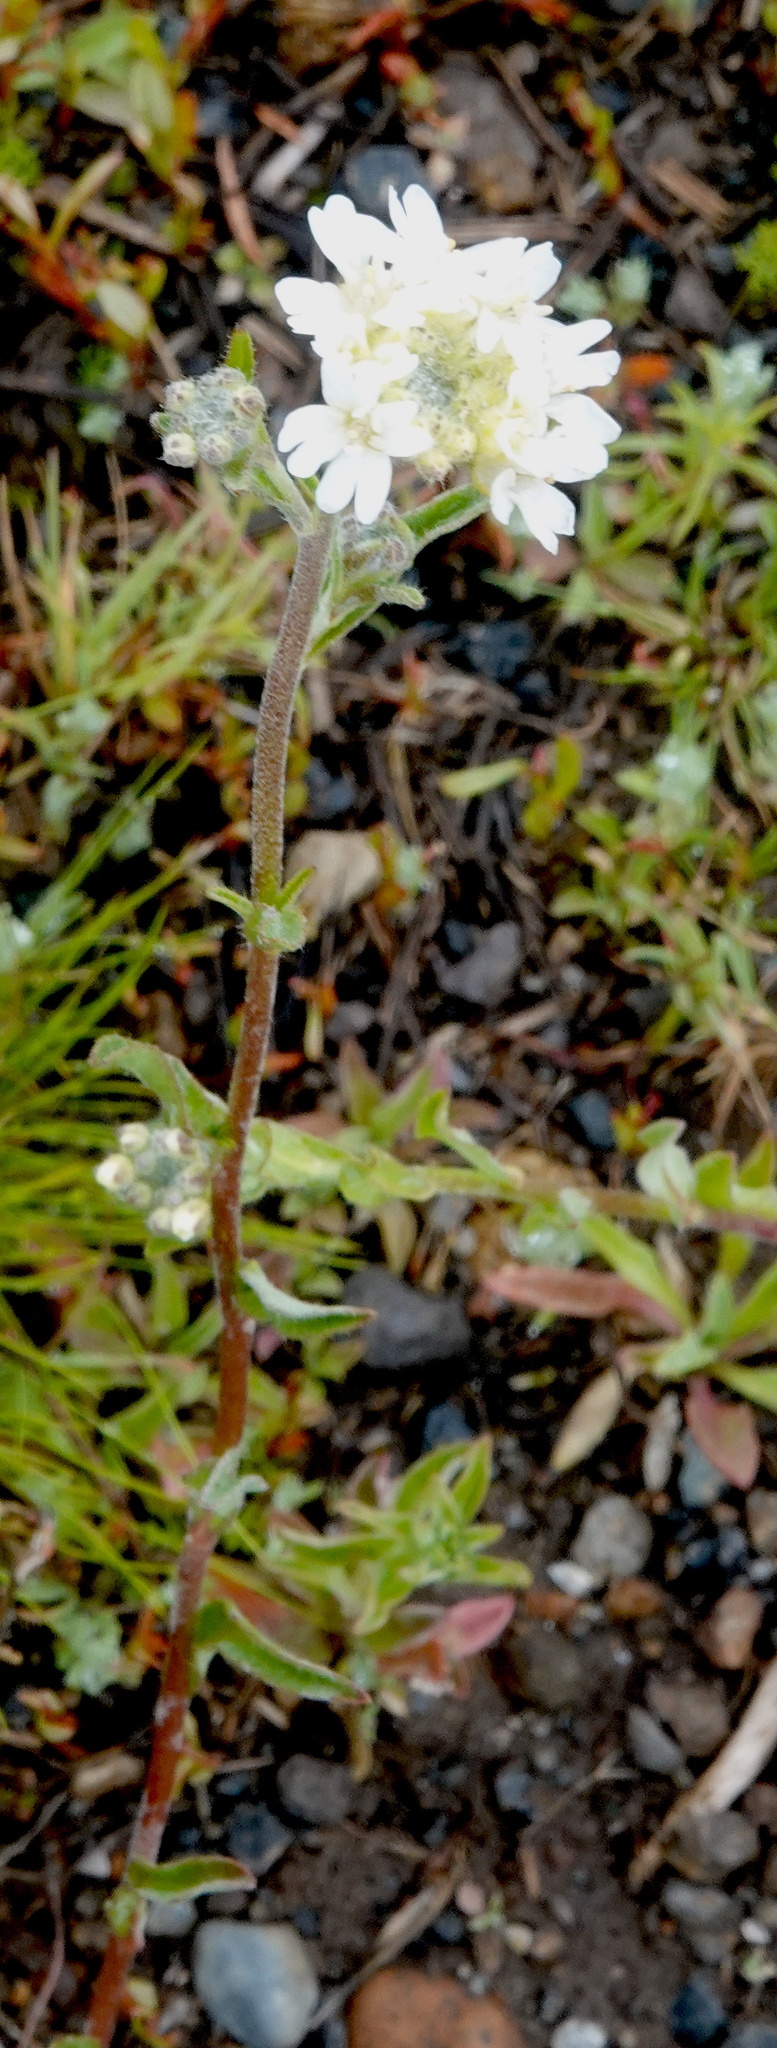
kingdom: Plantae
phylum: Tracheophyta
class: Magnoliopsida
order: Brassicales
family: Brassicaceae
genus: Berteroa
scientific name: Berteroa incana
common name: Hoary alison
